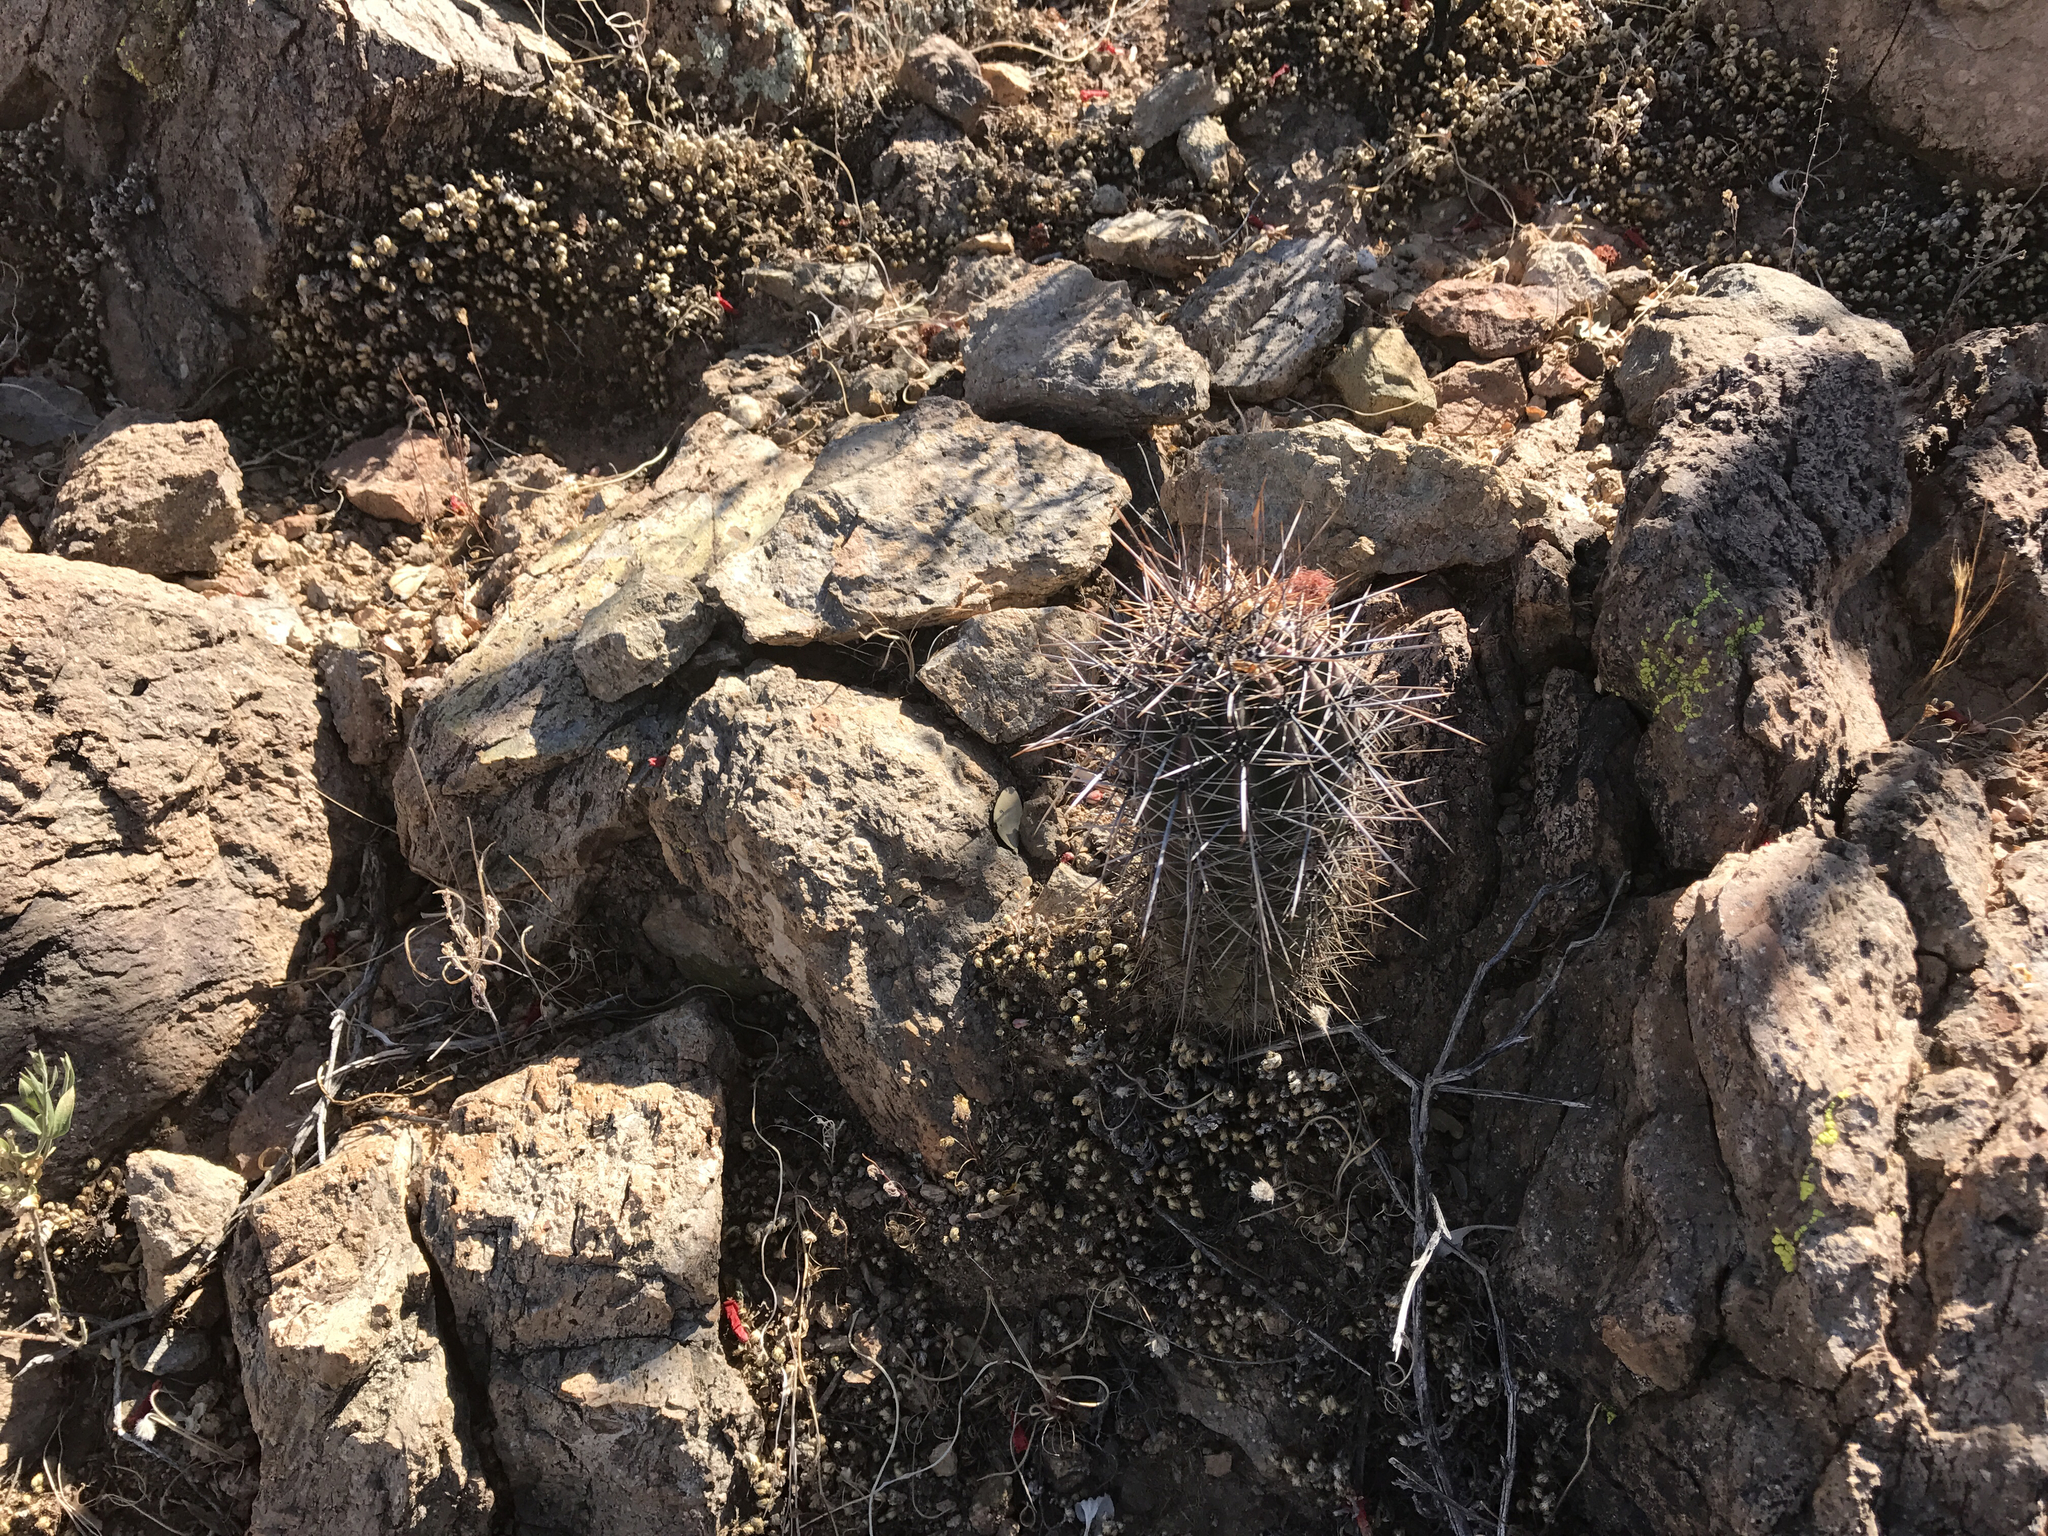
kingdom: Plantae
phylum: Tracheophyta
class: Magnoliopsida
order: Caryophyllales
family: Cactaceae
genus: Carnegiea
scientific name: Carnegiea gigantea
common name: Saguaro
